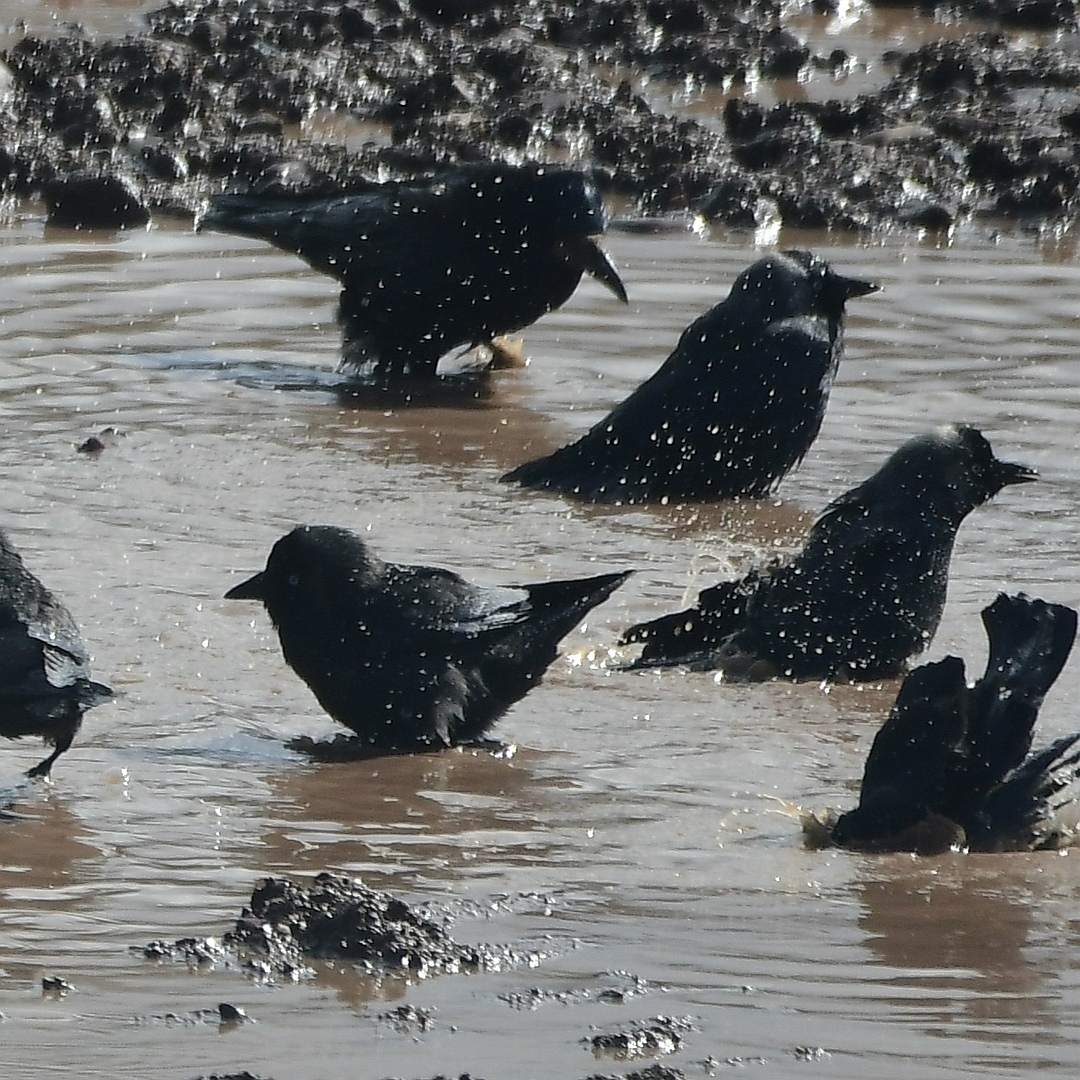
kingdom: Animalia
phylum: Chordata
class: Aves
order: Passeriformes
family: Corvidae
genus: Coloeus
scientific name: Coloeus monedula
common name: Western jackdaw
